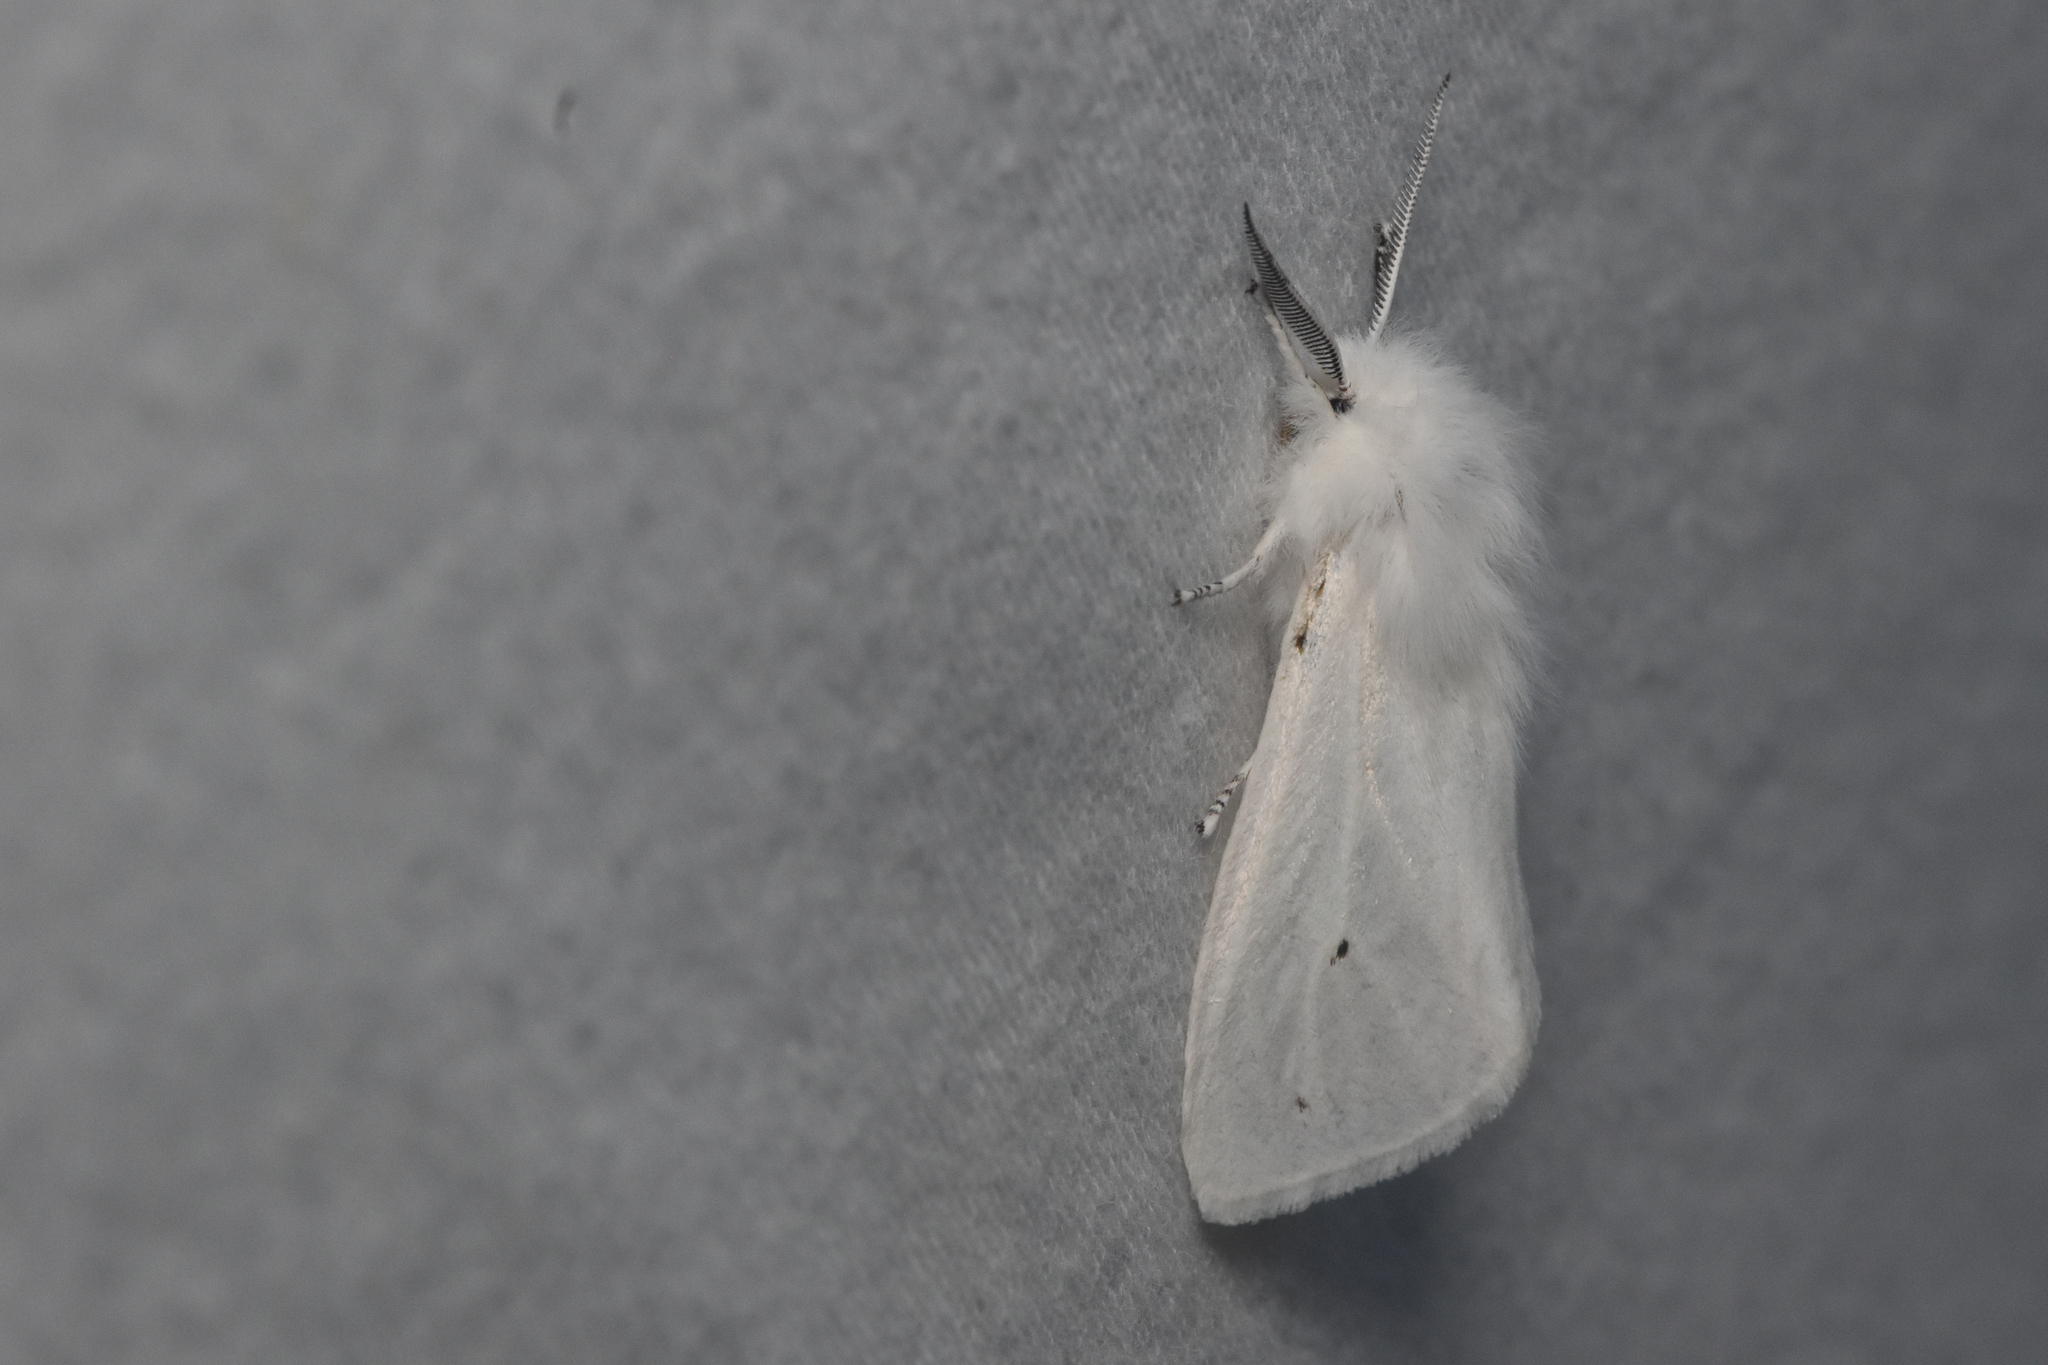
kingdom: Animalia
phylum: Arthropoda
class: Insecta
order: Lepidoptera
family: Erebidae
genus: Spilosoma
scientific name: Spilosoma virginica
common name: Virginia tiger moth
